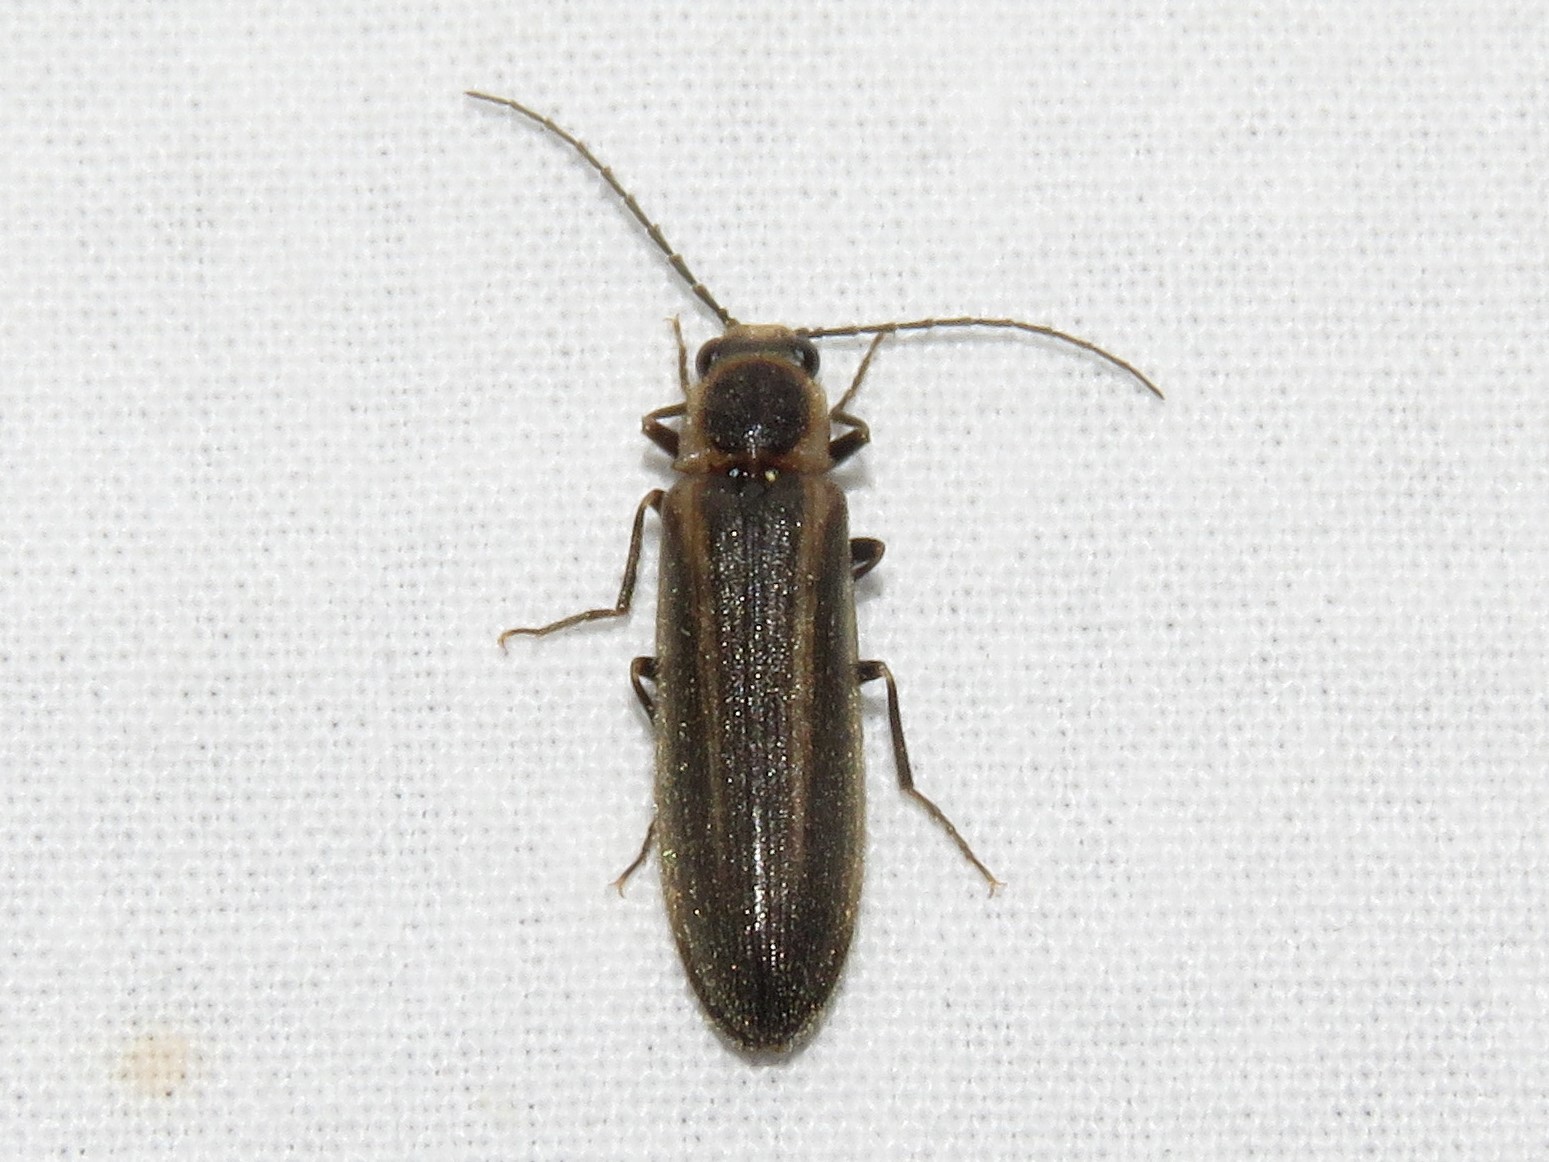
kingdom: Animalia
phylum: Arthropoda
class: Insecta
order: Coleoptera
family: Elateridae
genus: Denticollis
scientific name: Denticollis denticornis
